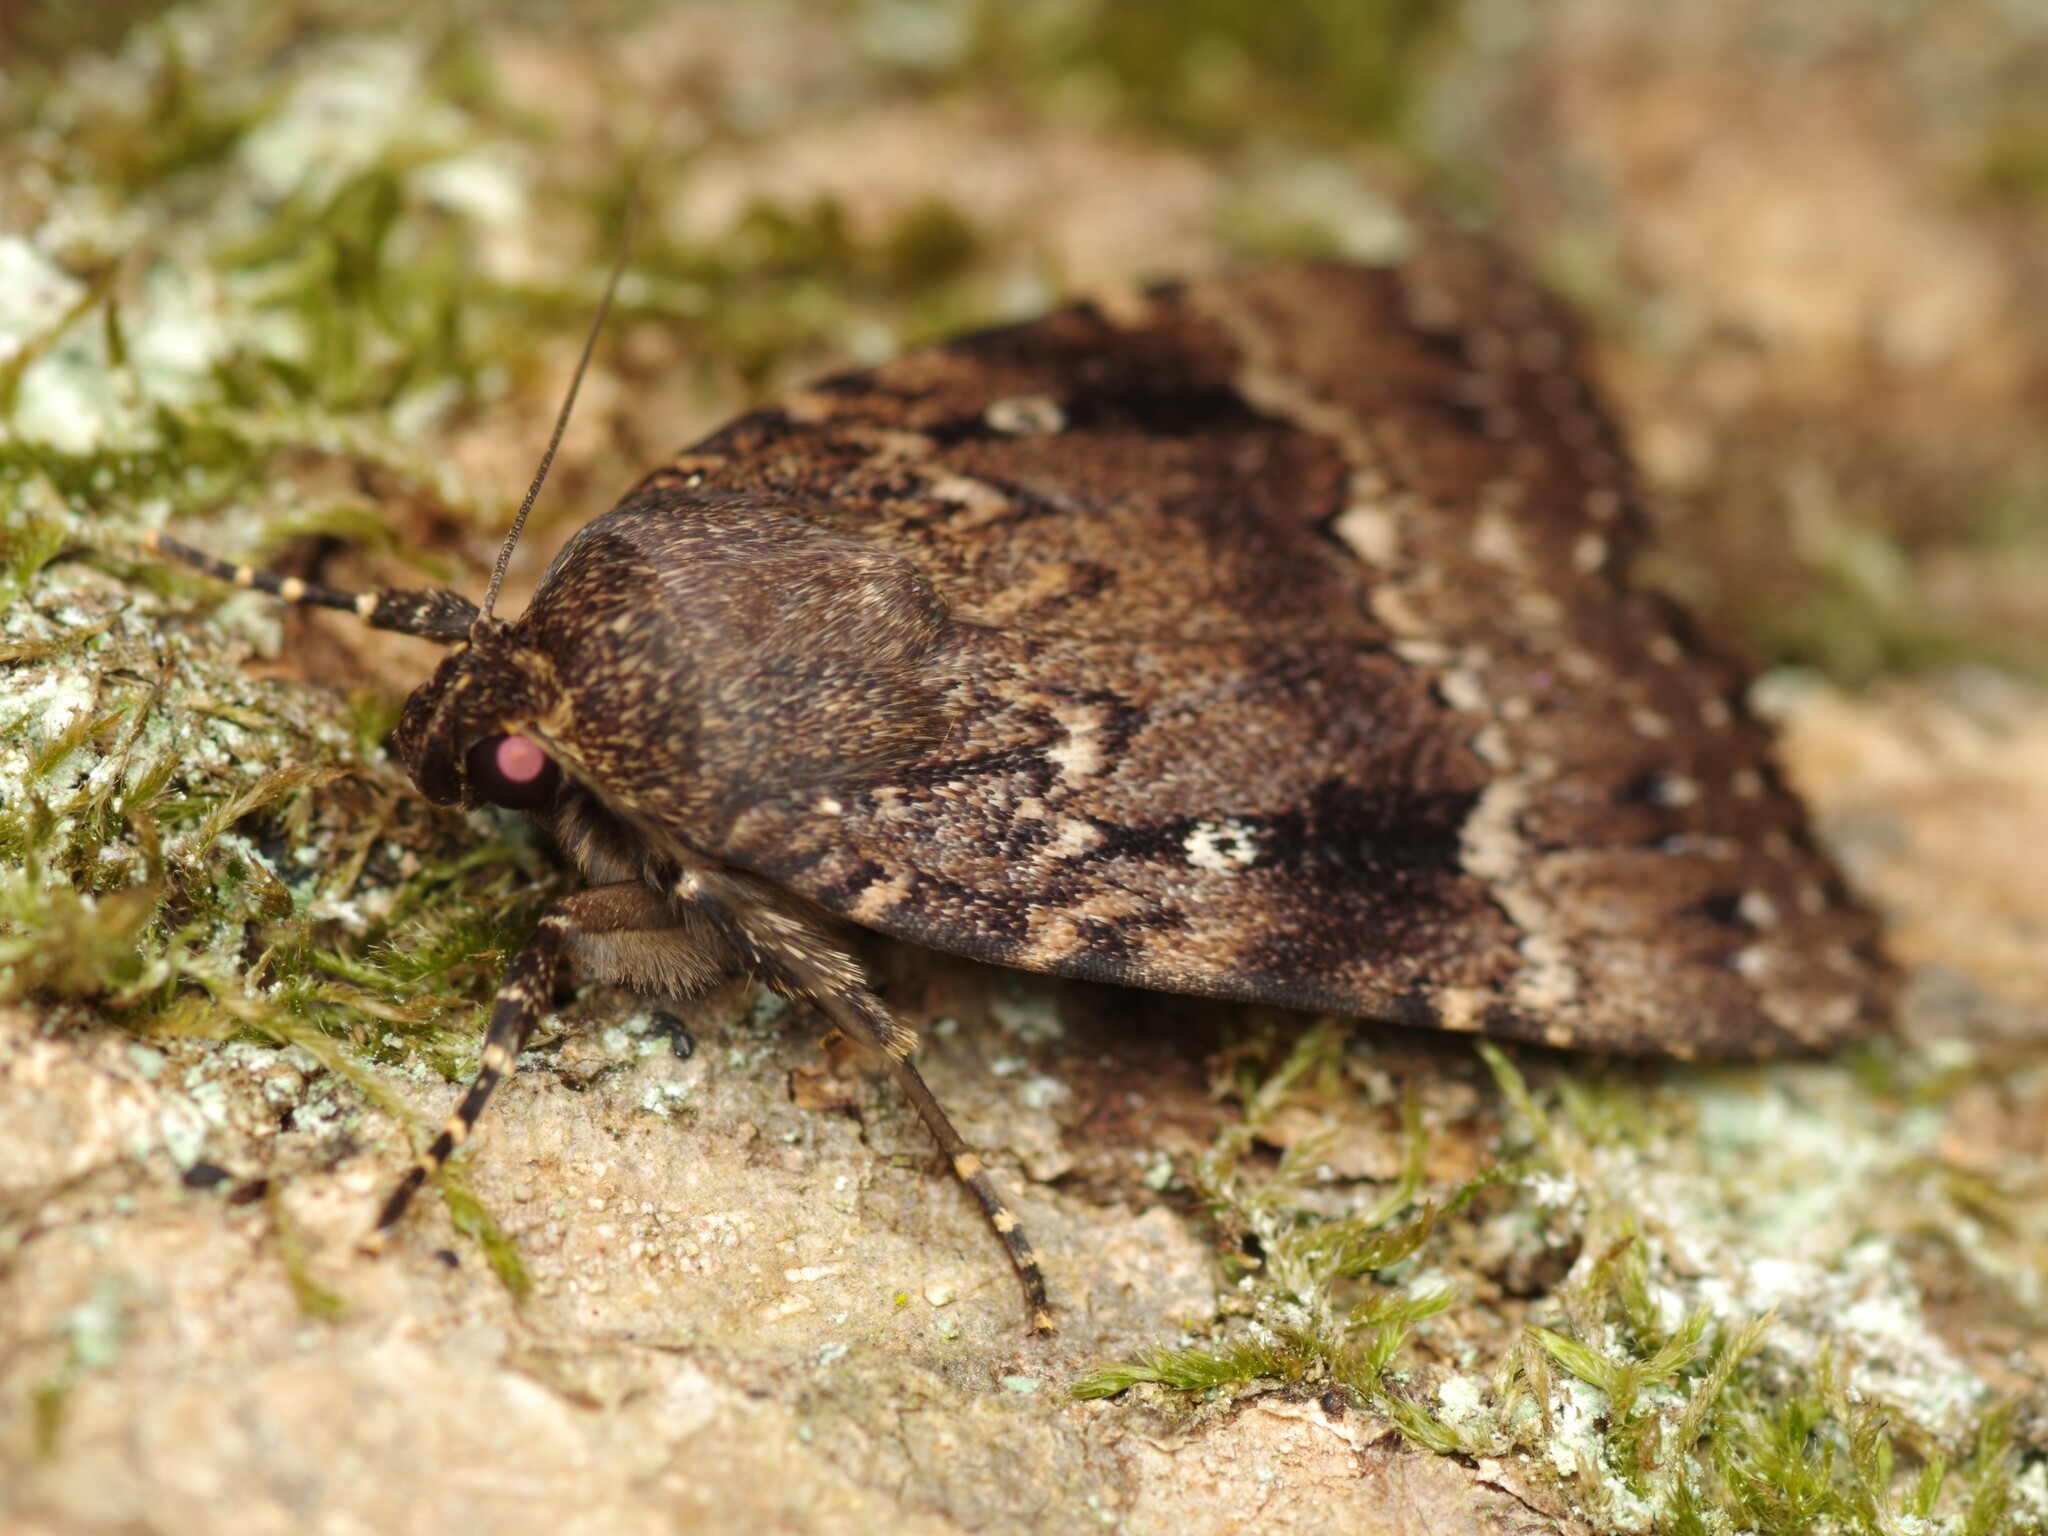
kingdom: Animalia
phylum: Arthropoda
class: Insecta
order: Lepidoptera
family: Noctuidae
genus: Amphipyra
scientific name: Amphipyra pyramidea
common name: Copper underwing
